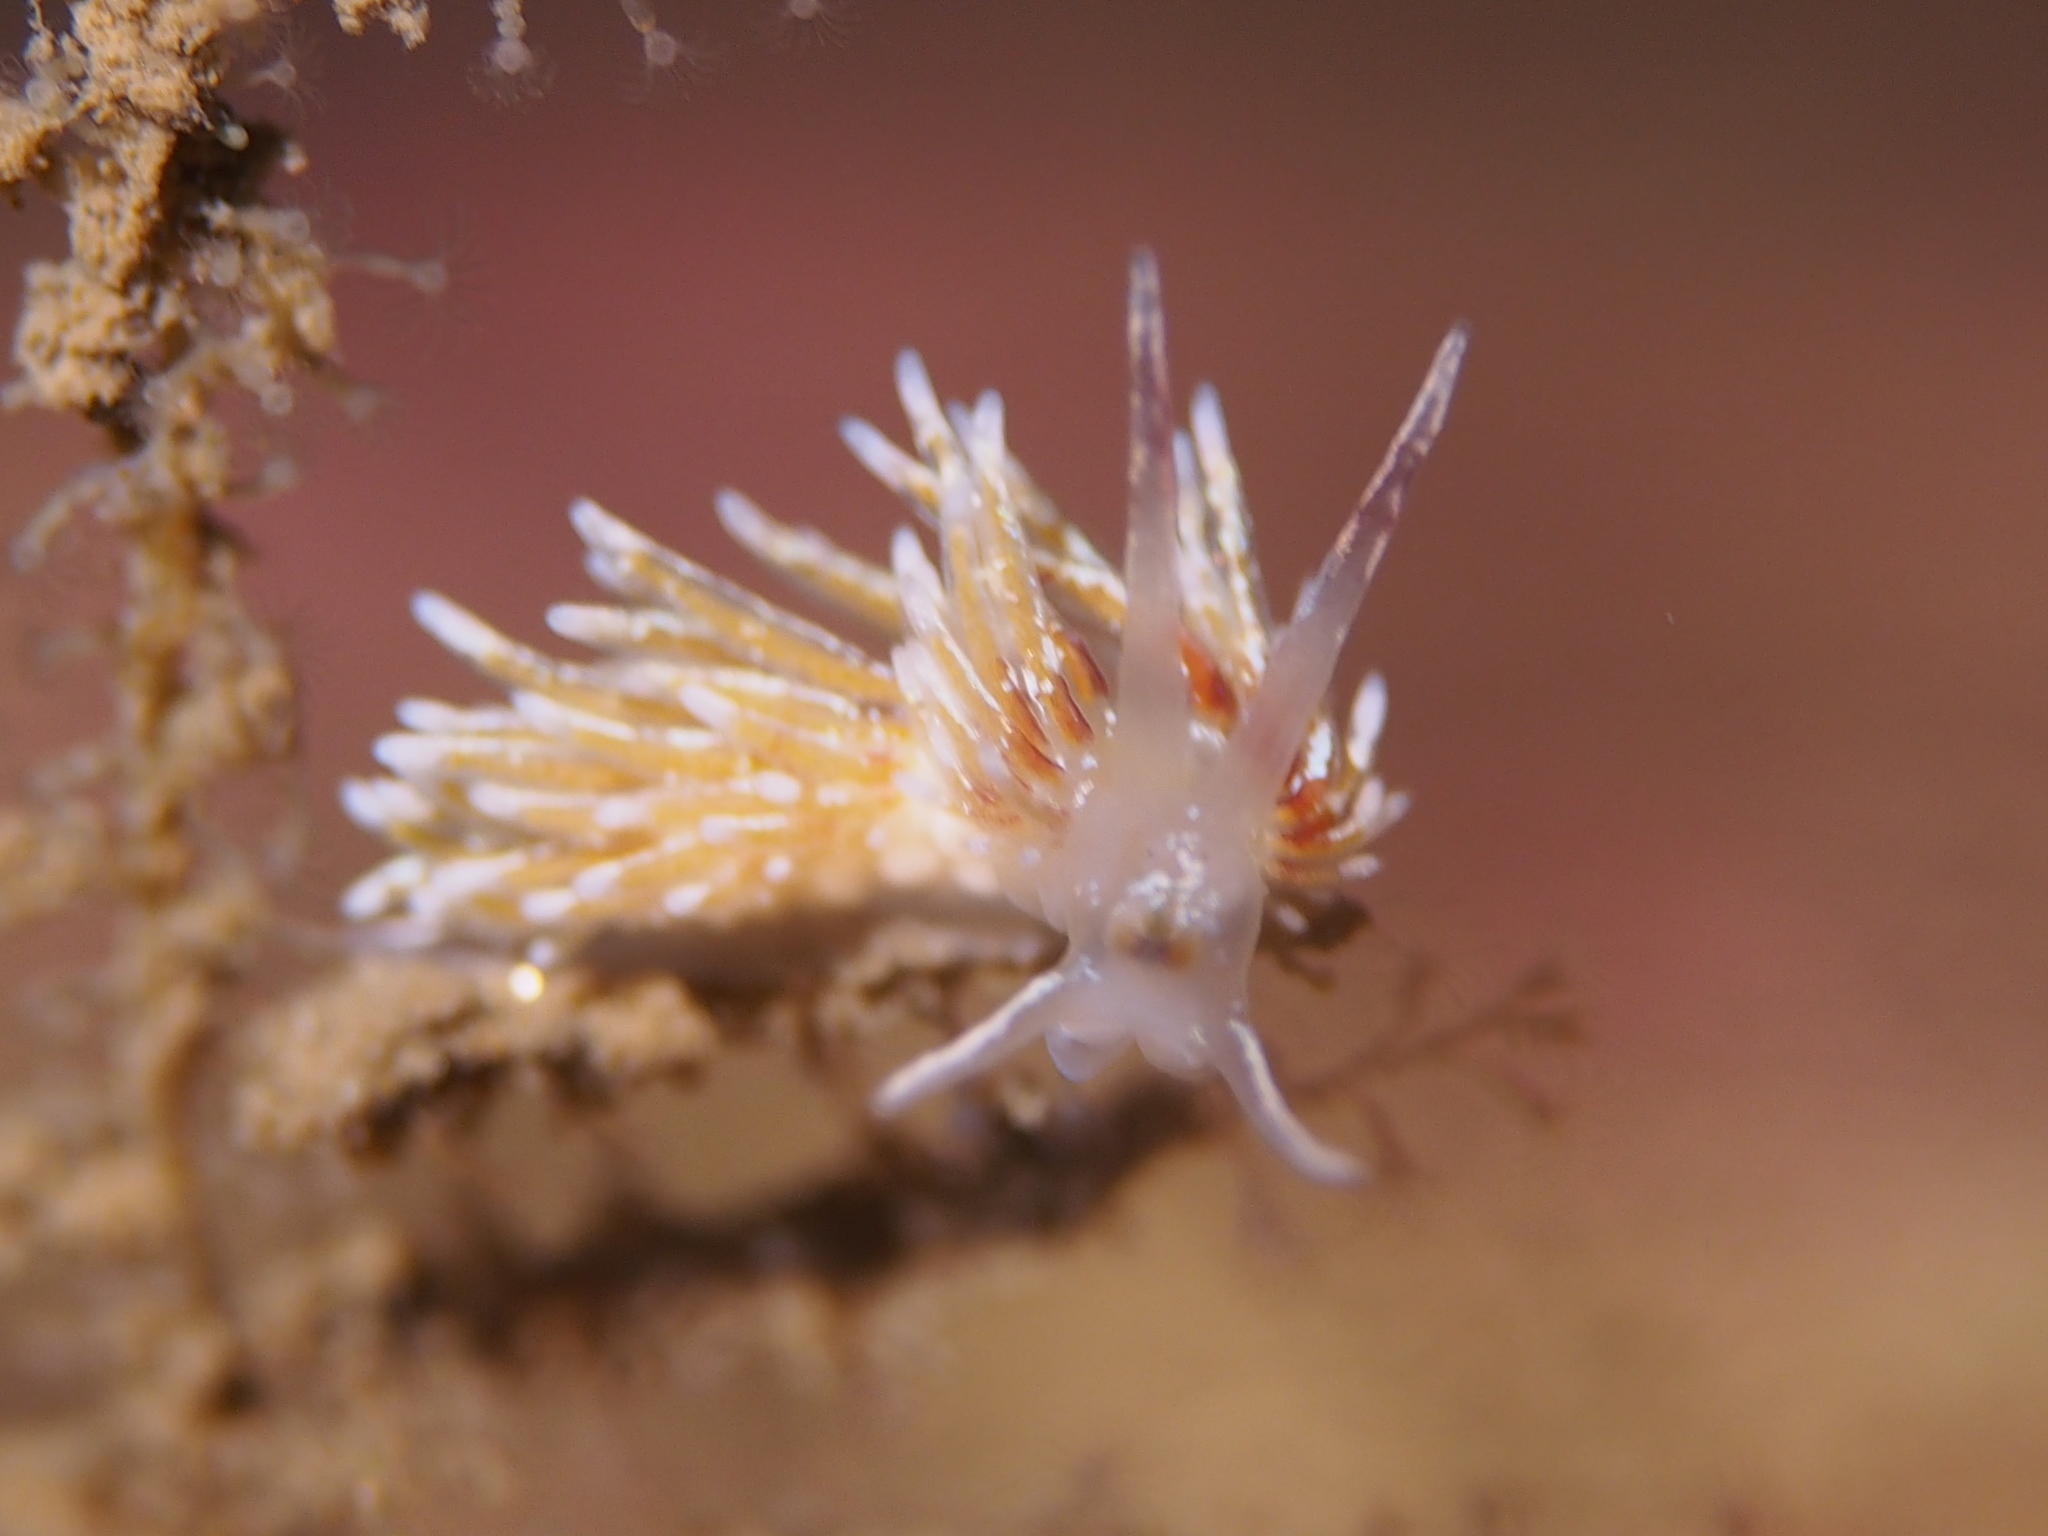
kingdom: Animalia
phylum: Mollusca
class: Gastropoda
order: Nudibranchia
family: Trinchesiidae
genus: Rubramoena
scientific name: Rubramoena rubescens
